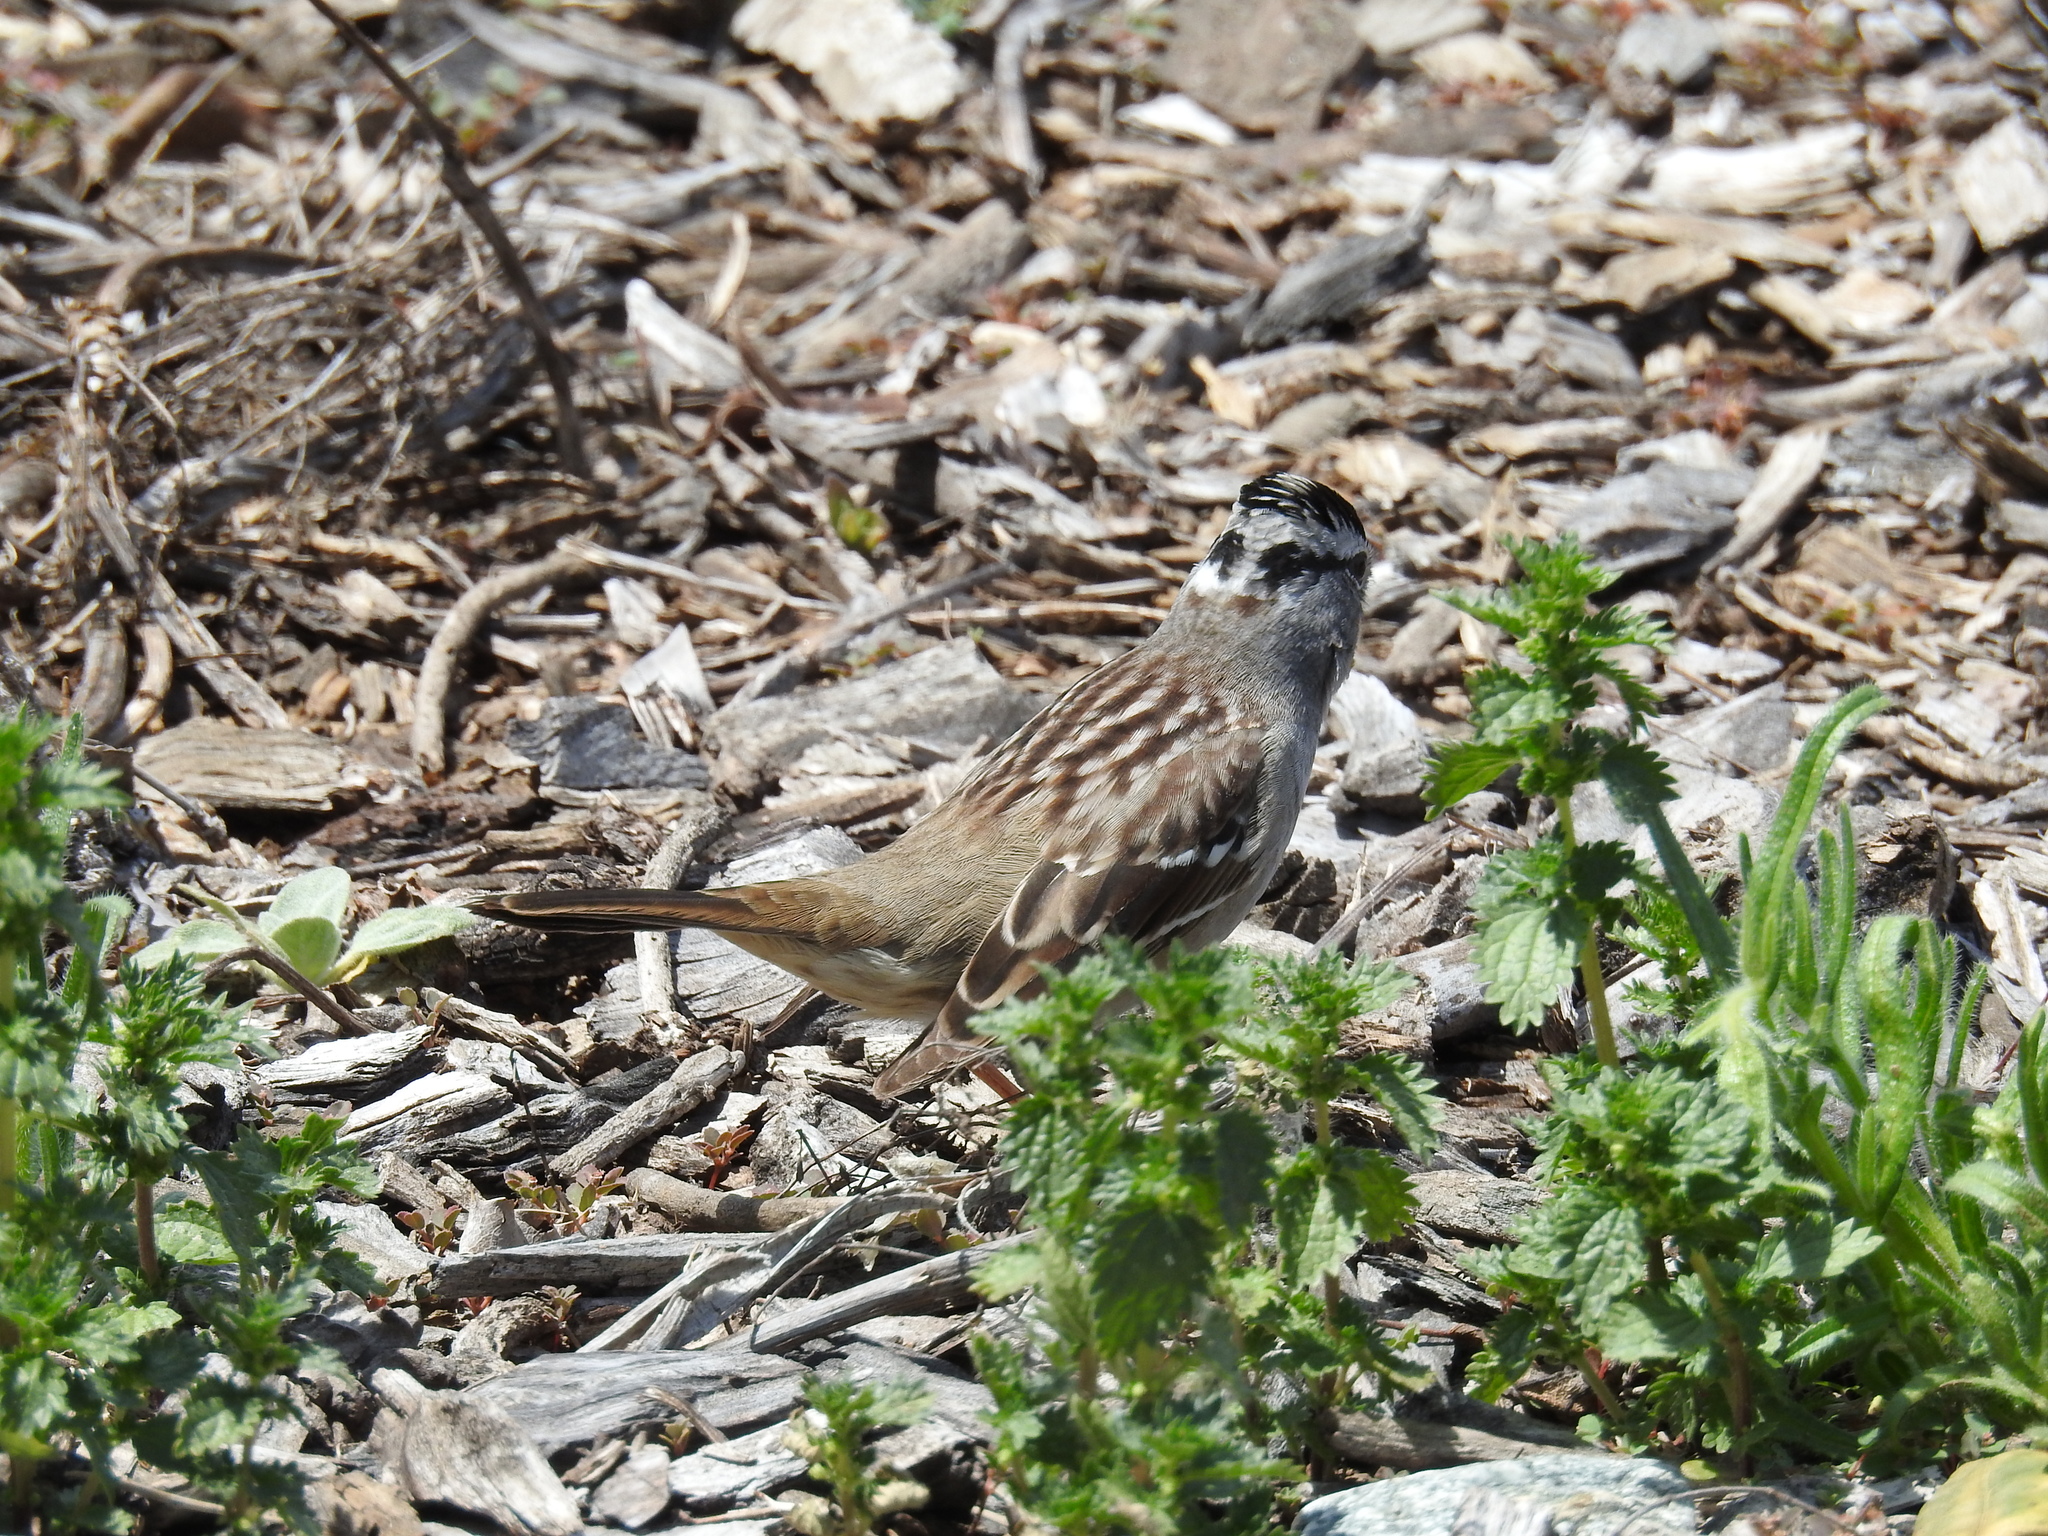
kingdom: Animalia
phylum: Chordata
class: Aves
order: Passeriformes
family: Passerellidae
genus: Zonotrichia
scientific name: Zonotrichia leucophrys
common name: White-crowned sparrow
